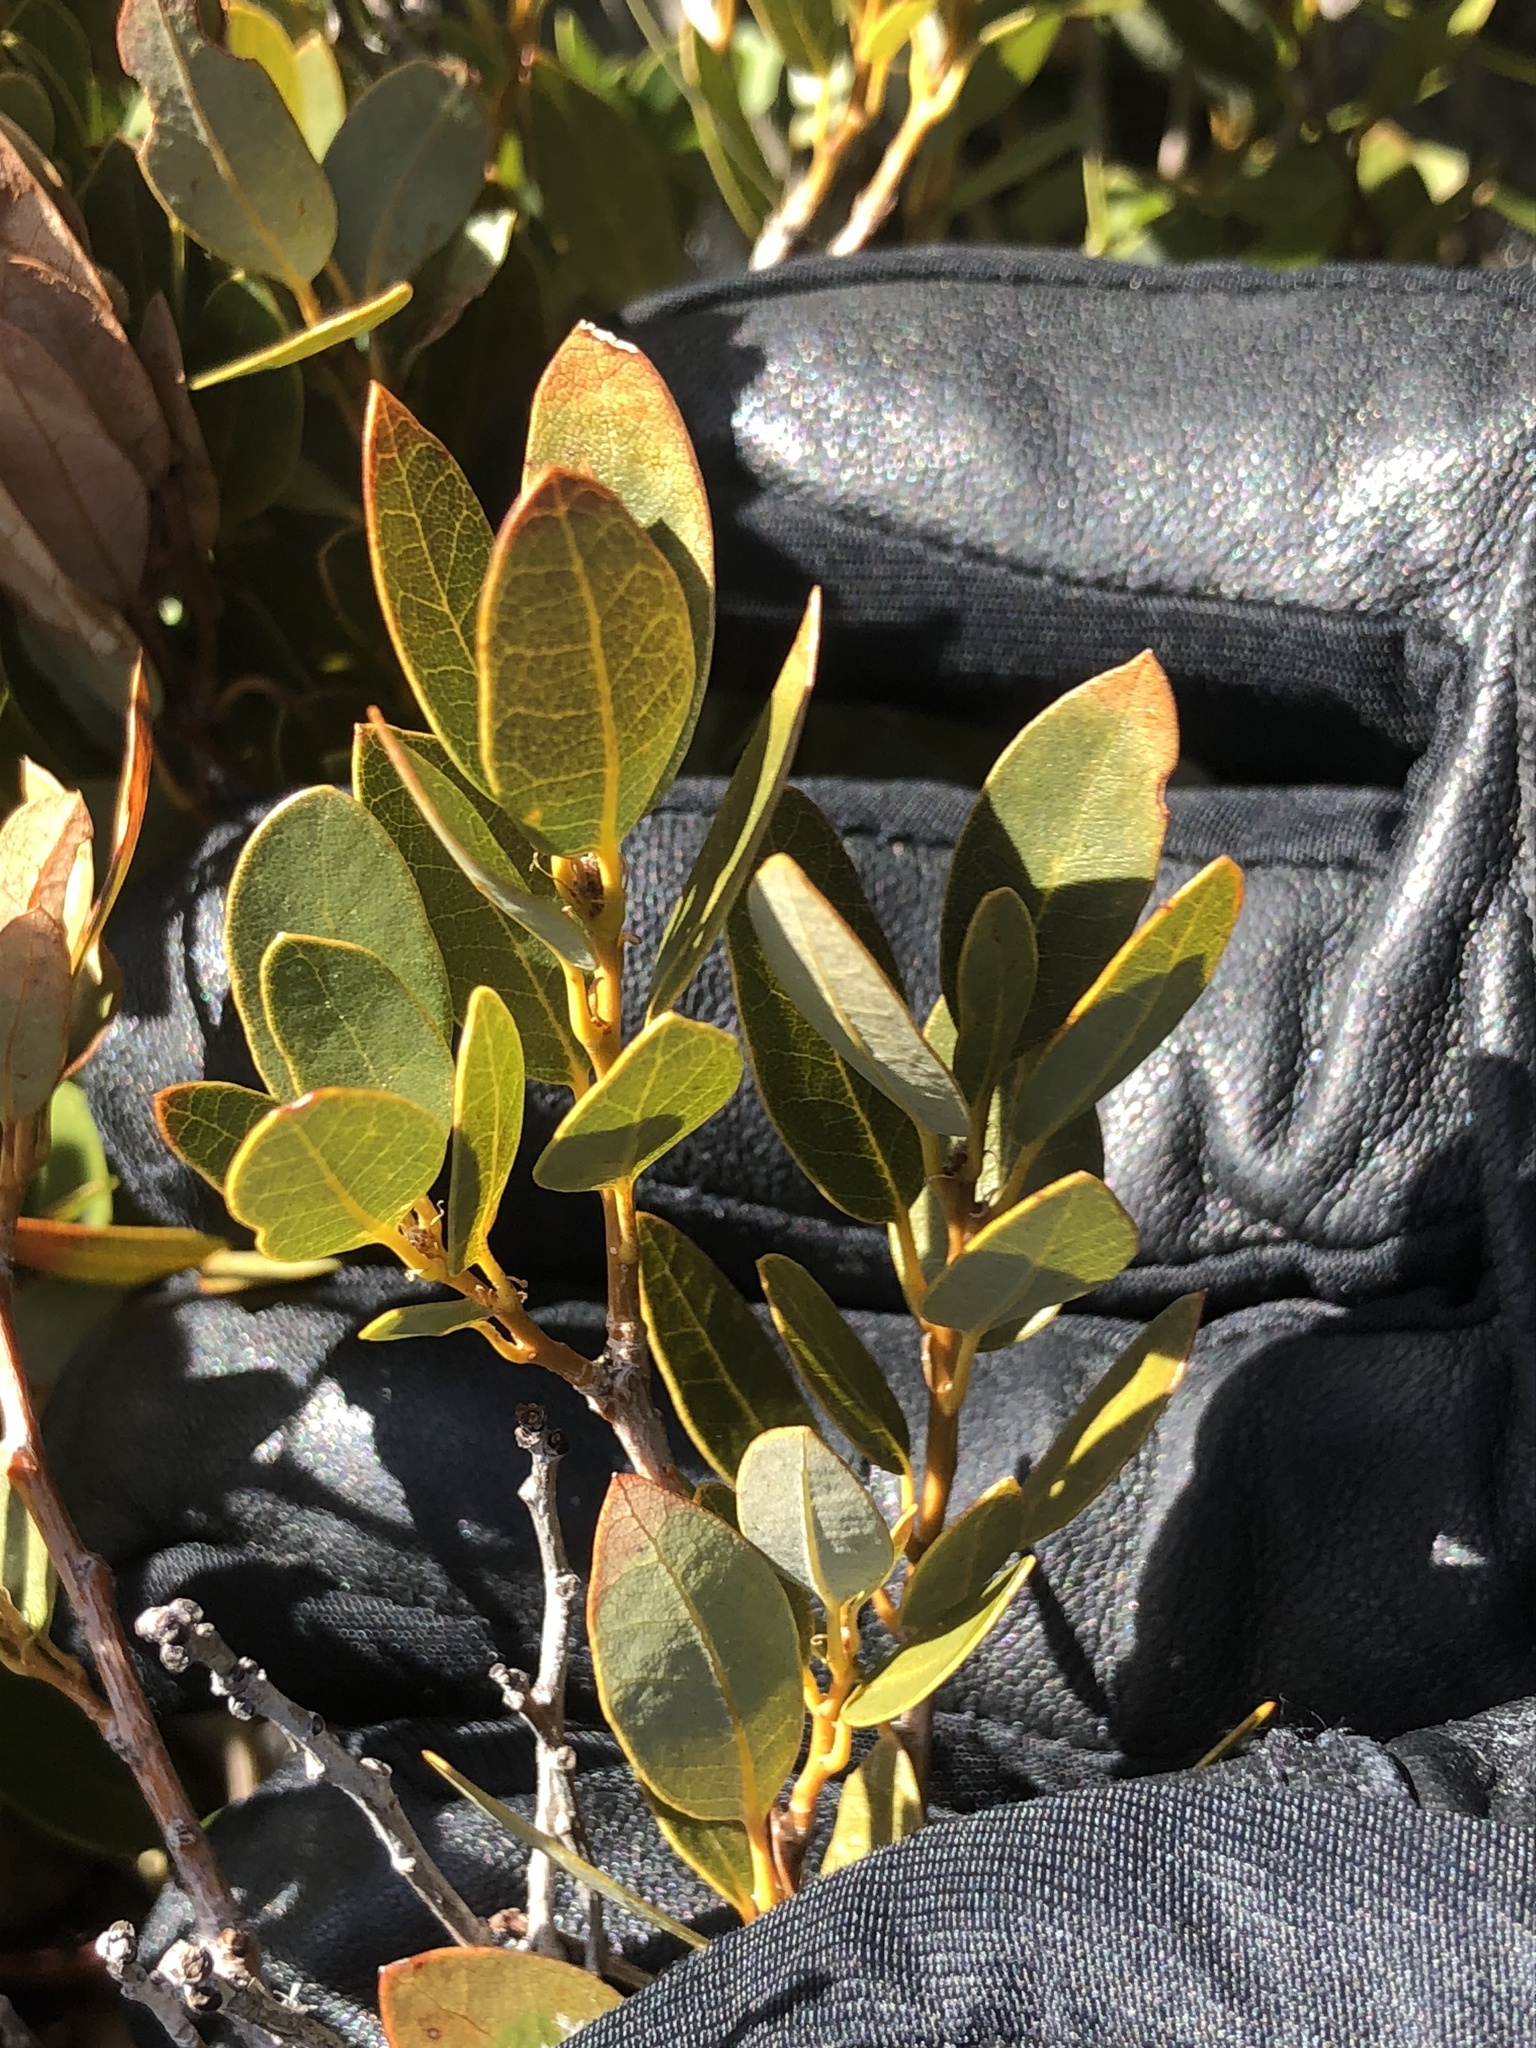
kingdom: Plantae
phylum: Tracheophyta
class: Magnoliopsida
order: Fagales
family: Fagaceae
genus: Quercus
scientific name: Quercus vacciniifolia
